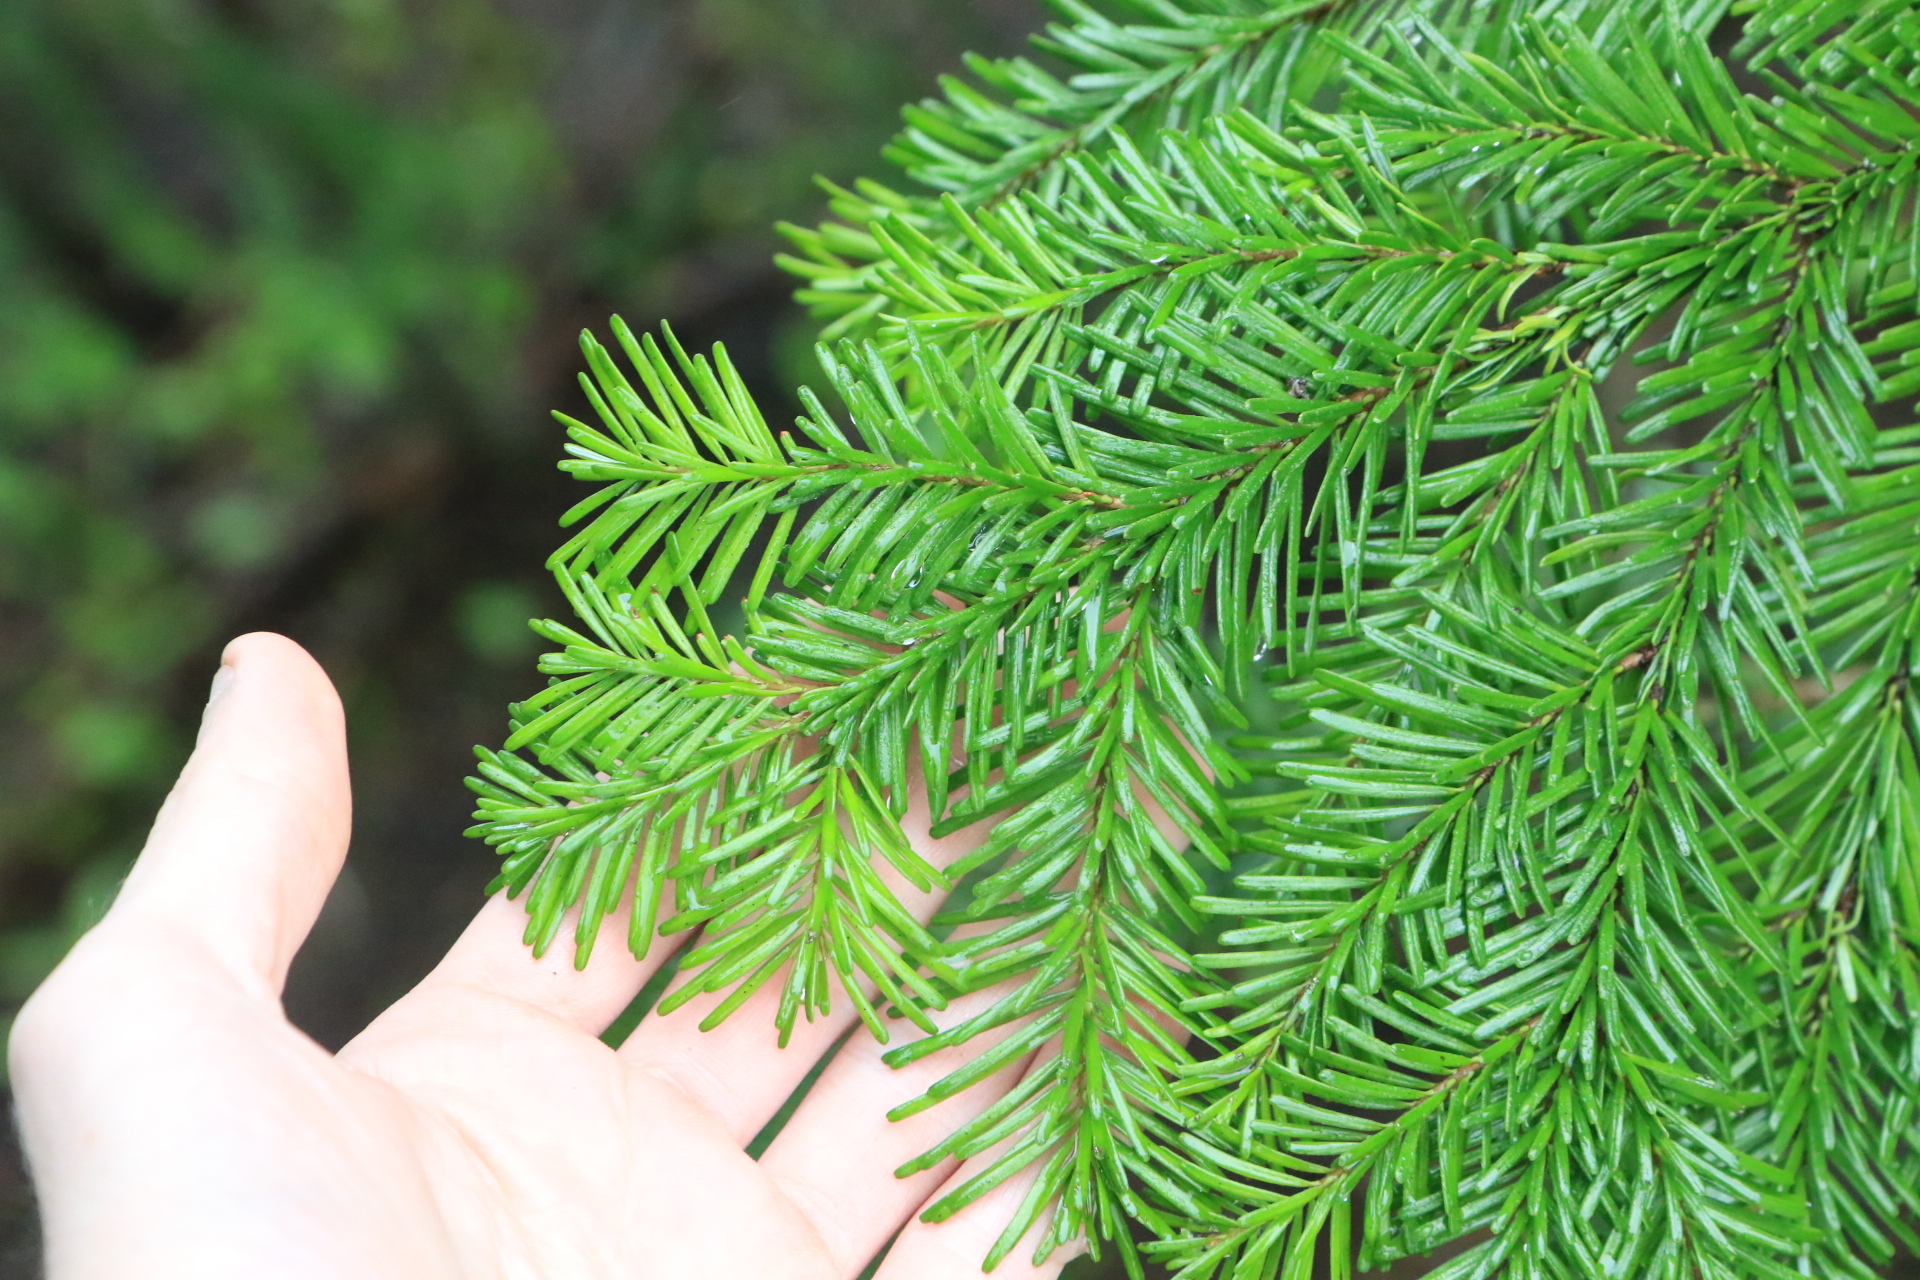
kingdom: Plantae
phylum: Tracheophyta
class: Pinopsida
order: Pinales
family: Pinaceae
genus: Abies
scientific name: Abies amabilis
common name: Pacific silver fir
